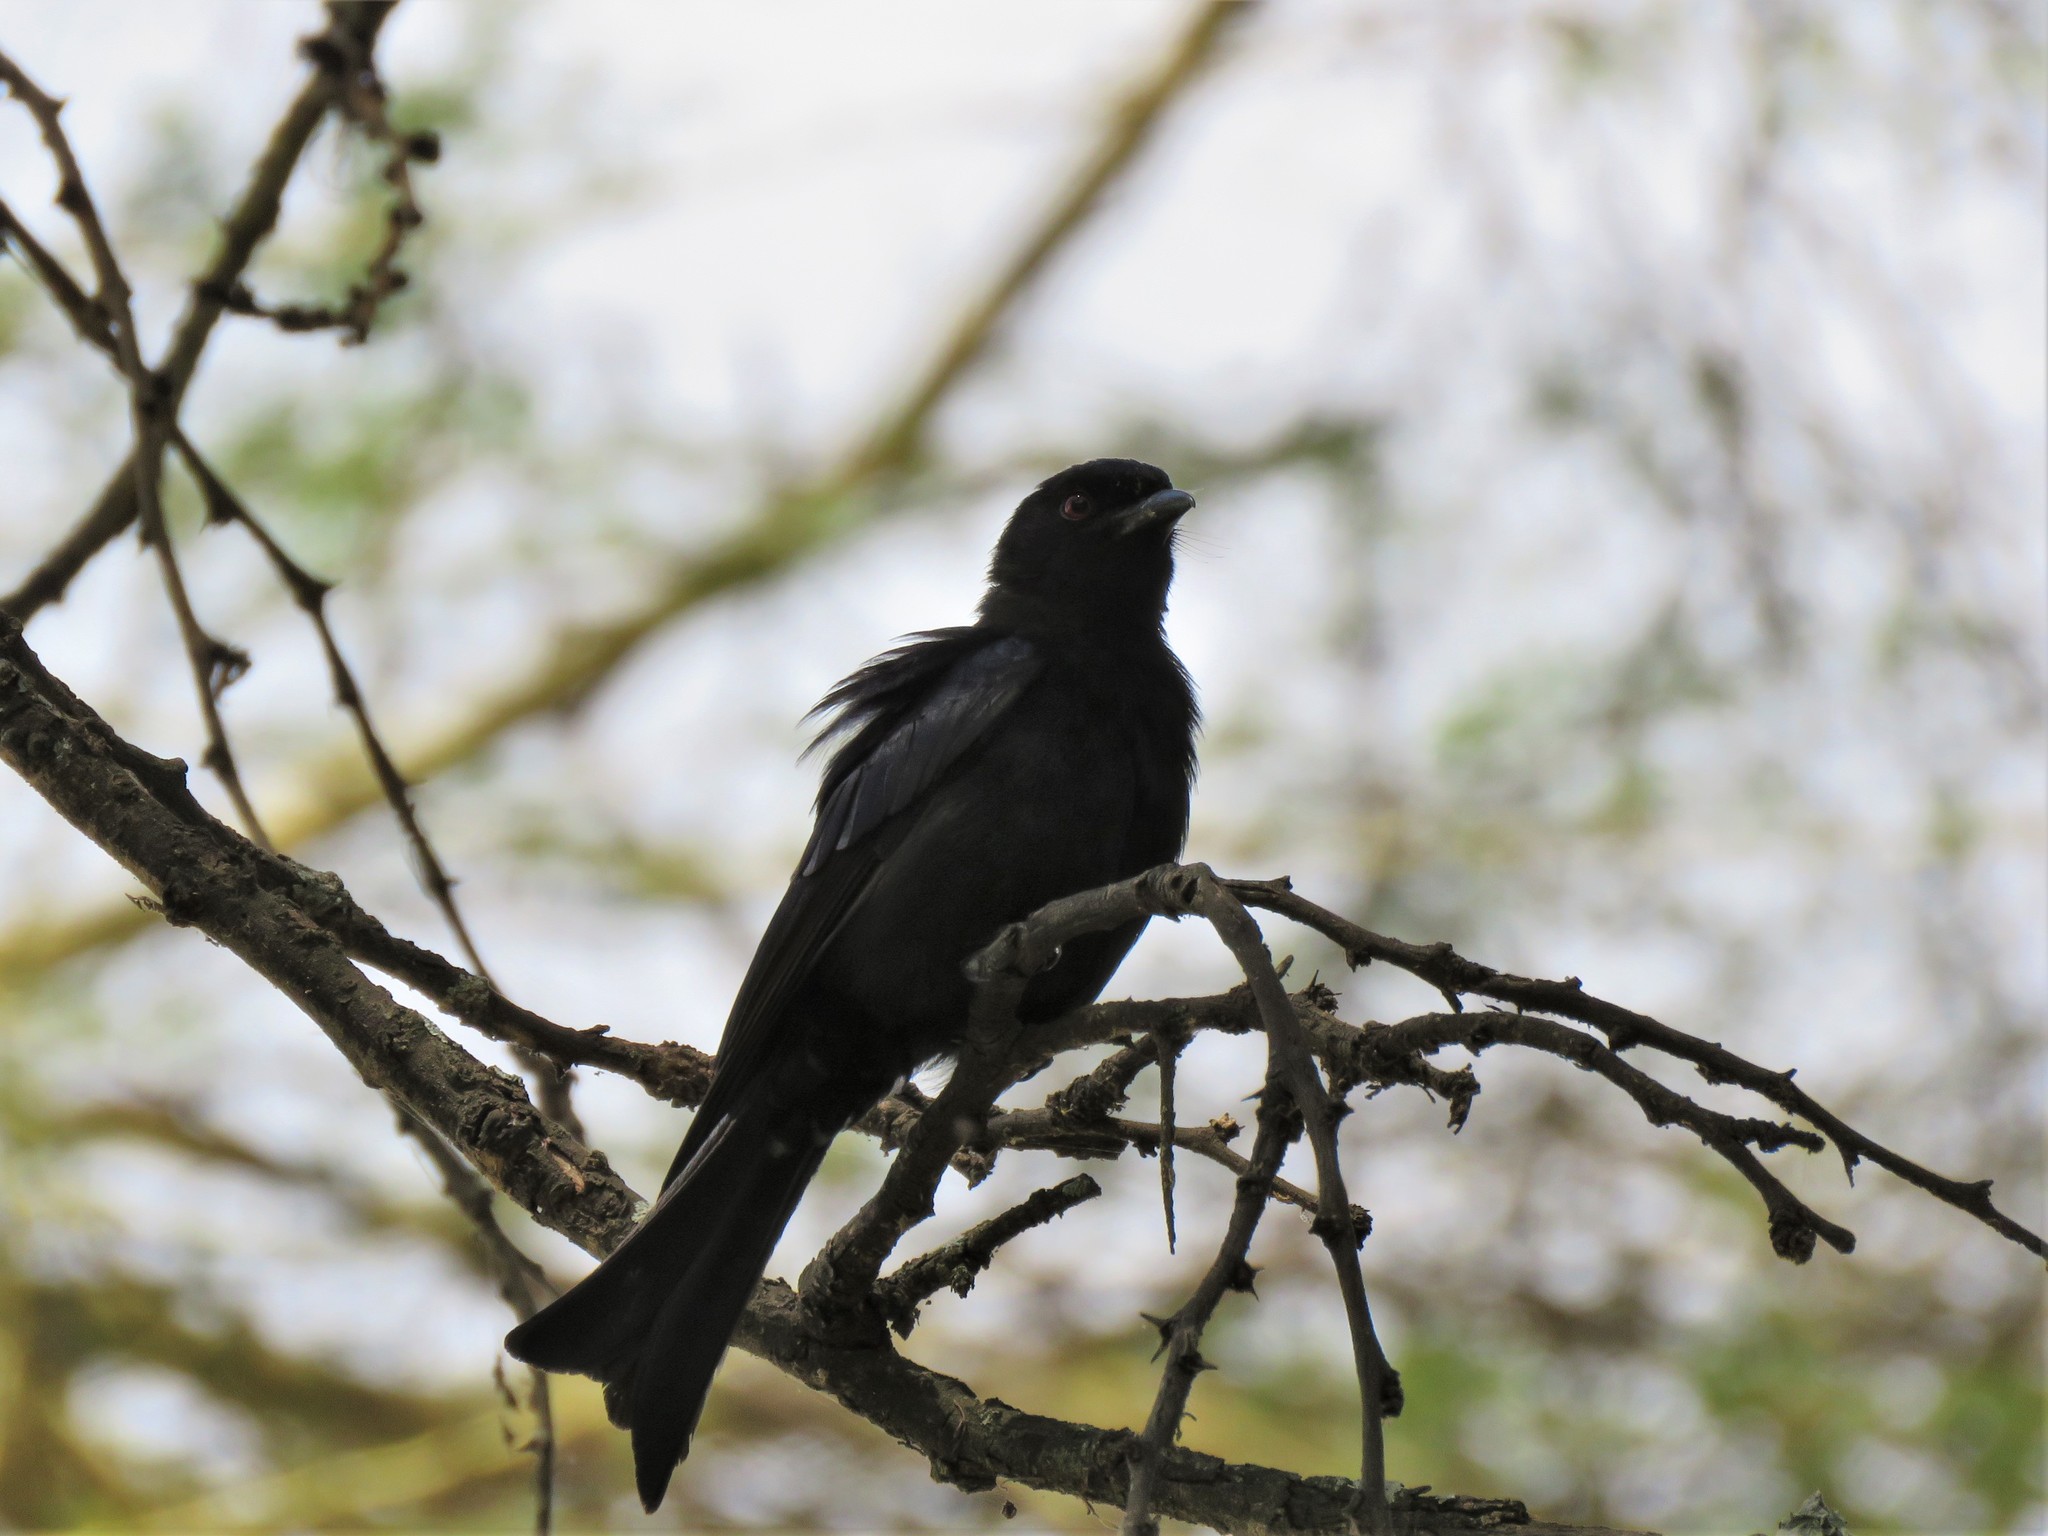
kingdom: Animalia
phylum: Chordata
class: Aves
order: Passeriformes
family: Dicruridae
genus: Dicrurus
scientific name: Dicrurus adsimilis
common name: Fork-tailed drongo
